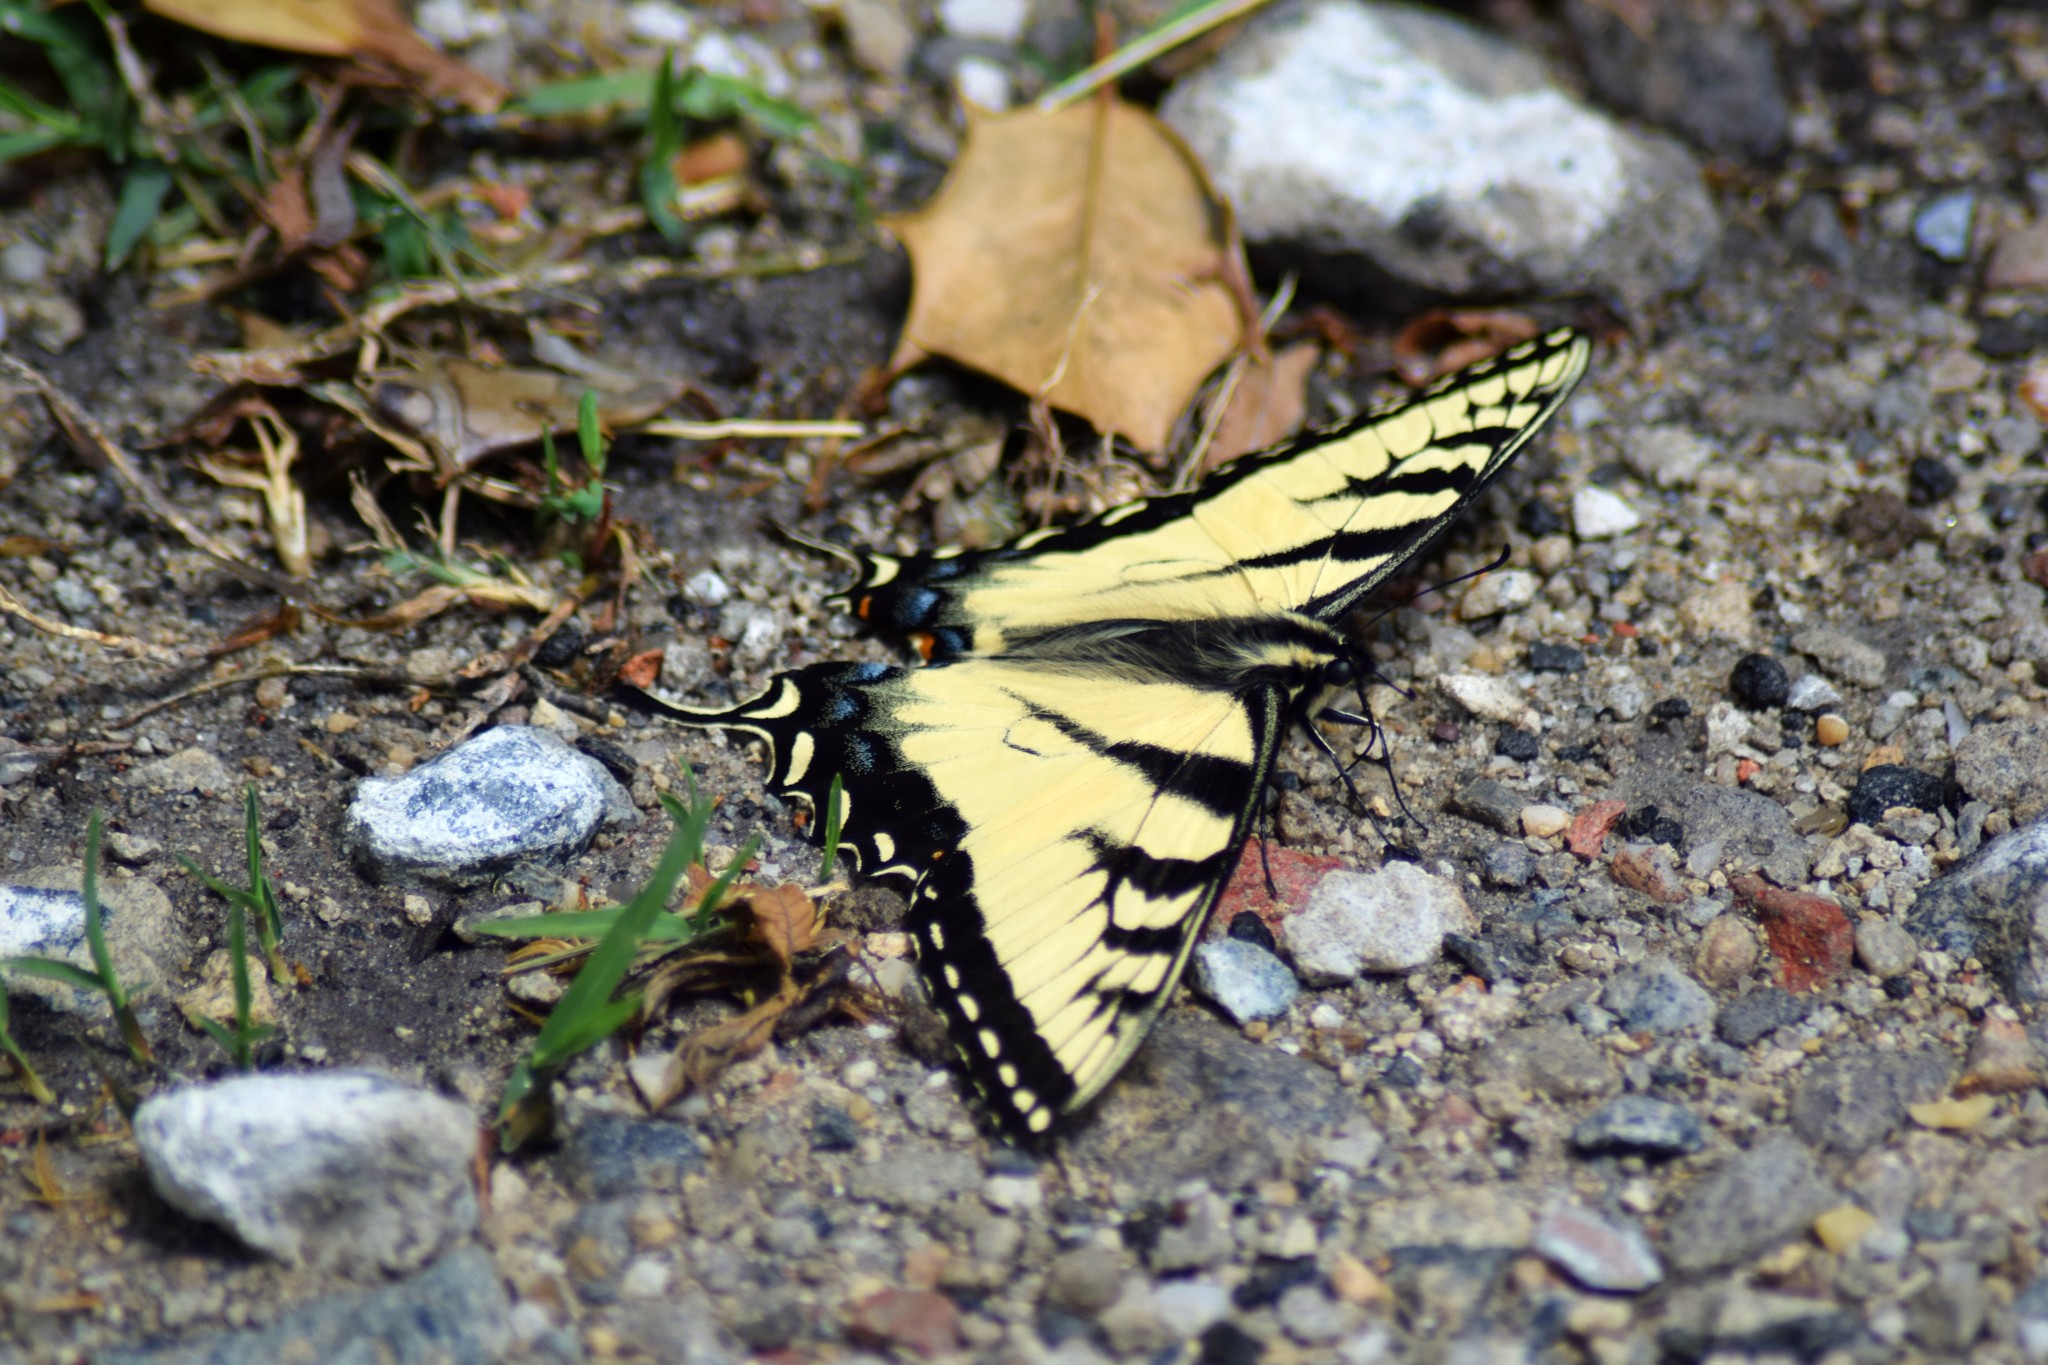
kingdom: Animalia
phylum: Arthropoda
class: Insecta
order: Lepidoptera
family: Papilionidae
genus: Papilio
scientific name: Papilio glaucus
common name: Tiger swallowtail
